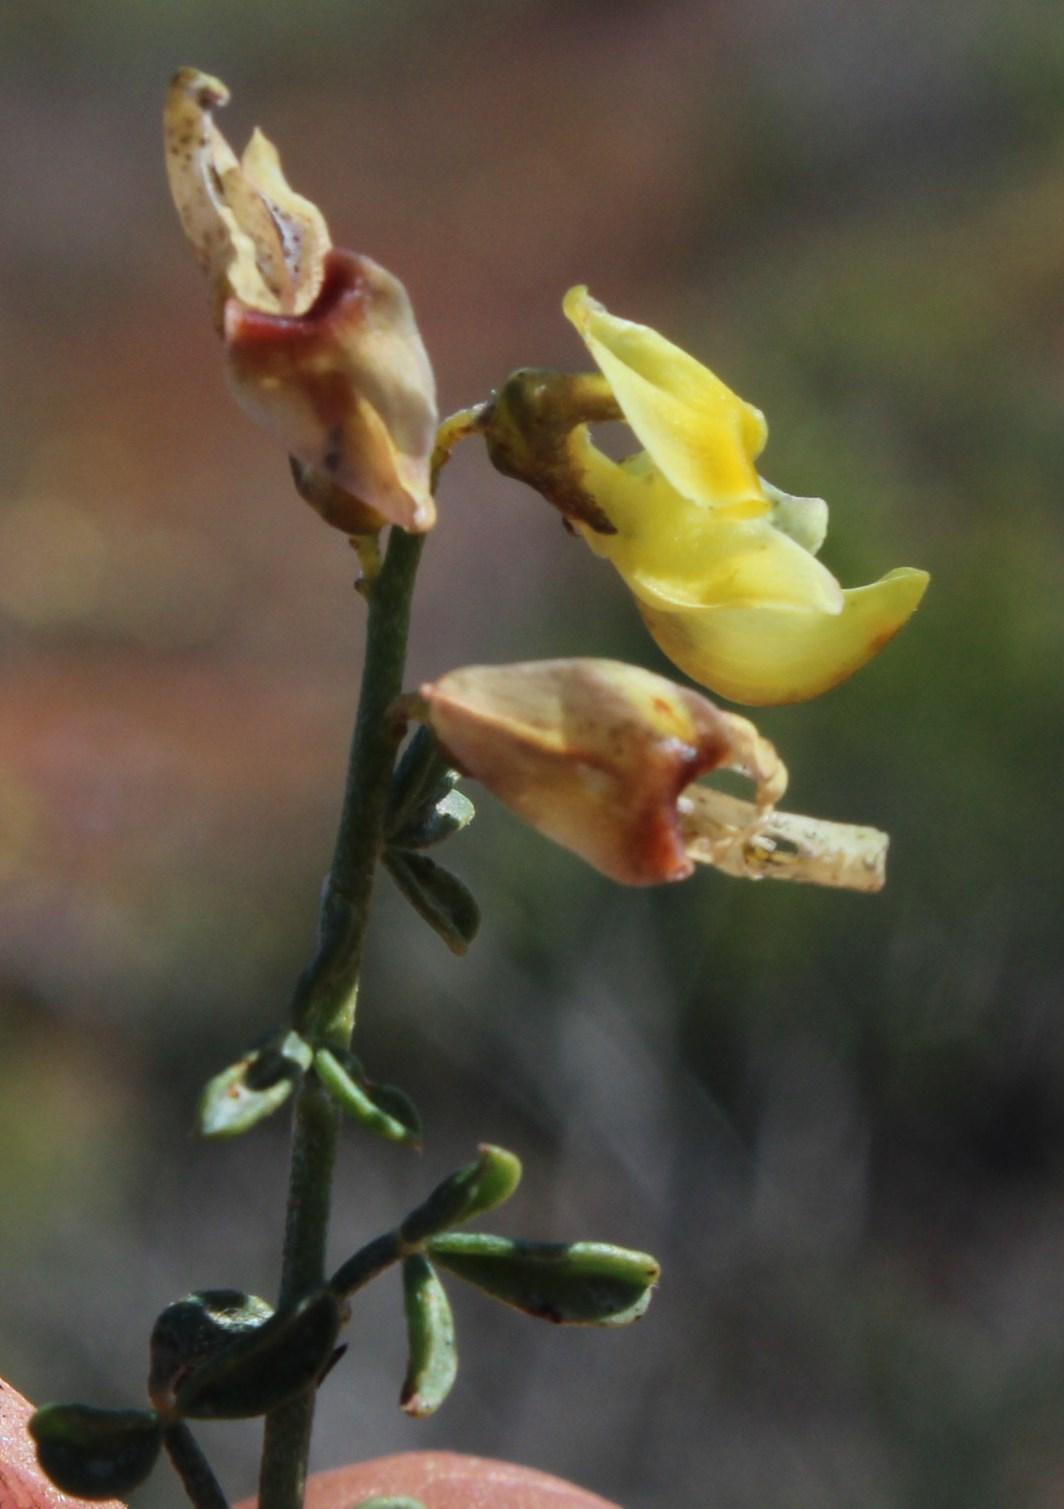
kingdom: Plantae
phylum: Tracheophyta
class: Magnoliopsida
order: Fabales
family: Fabaceae
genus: Wiborgia
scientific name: Wiborgia incurvata
